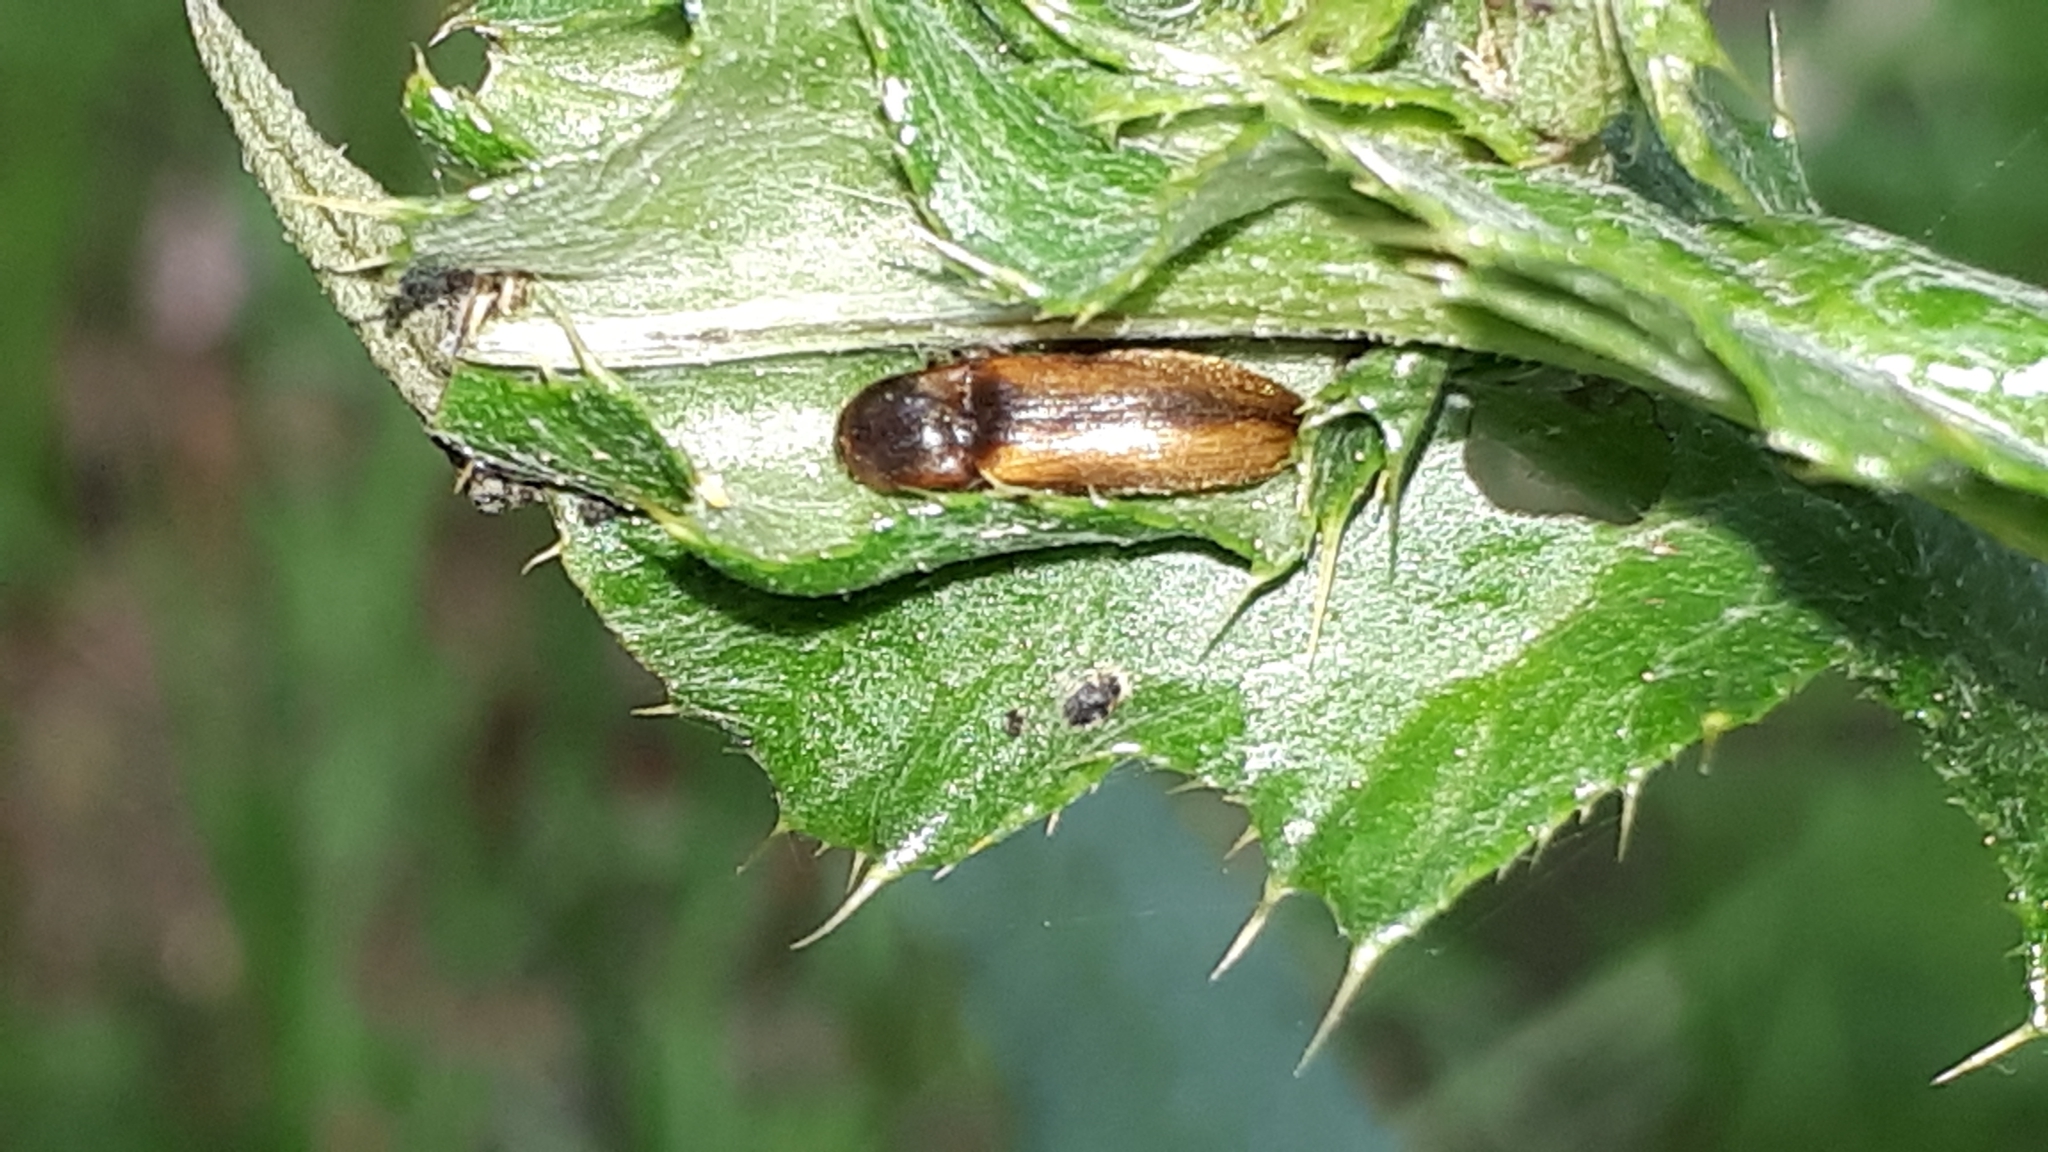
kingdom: Animalia
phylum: Arthropoda
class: Insecta
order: Coleoptera
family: Elateridae
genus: Dalopius
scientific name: Dalopius marginatus
